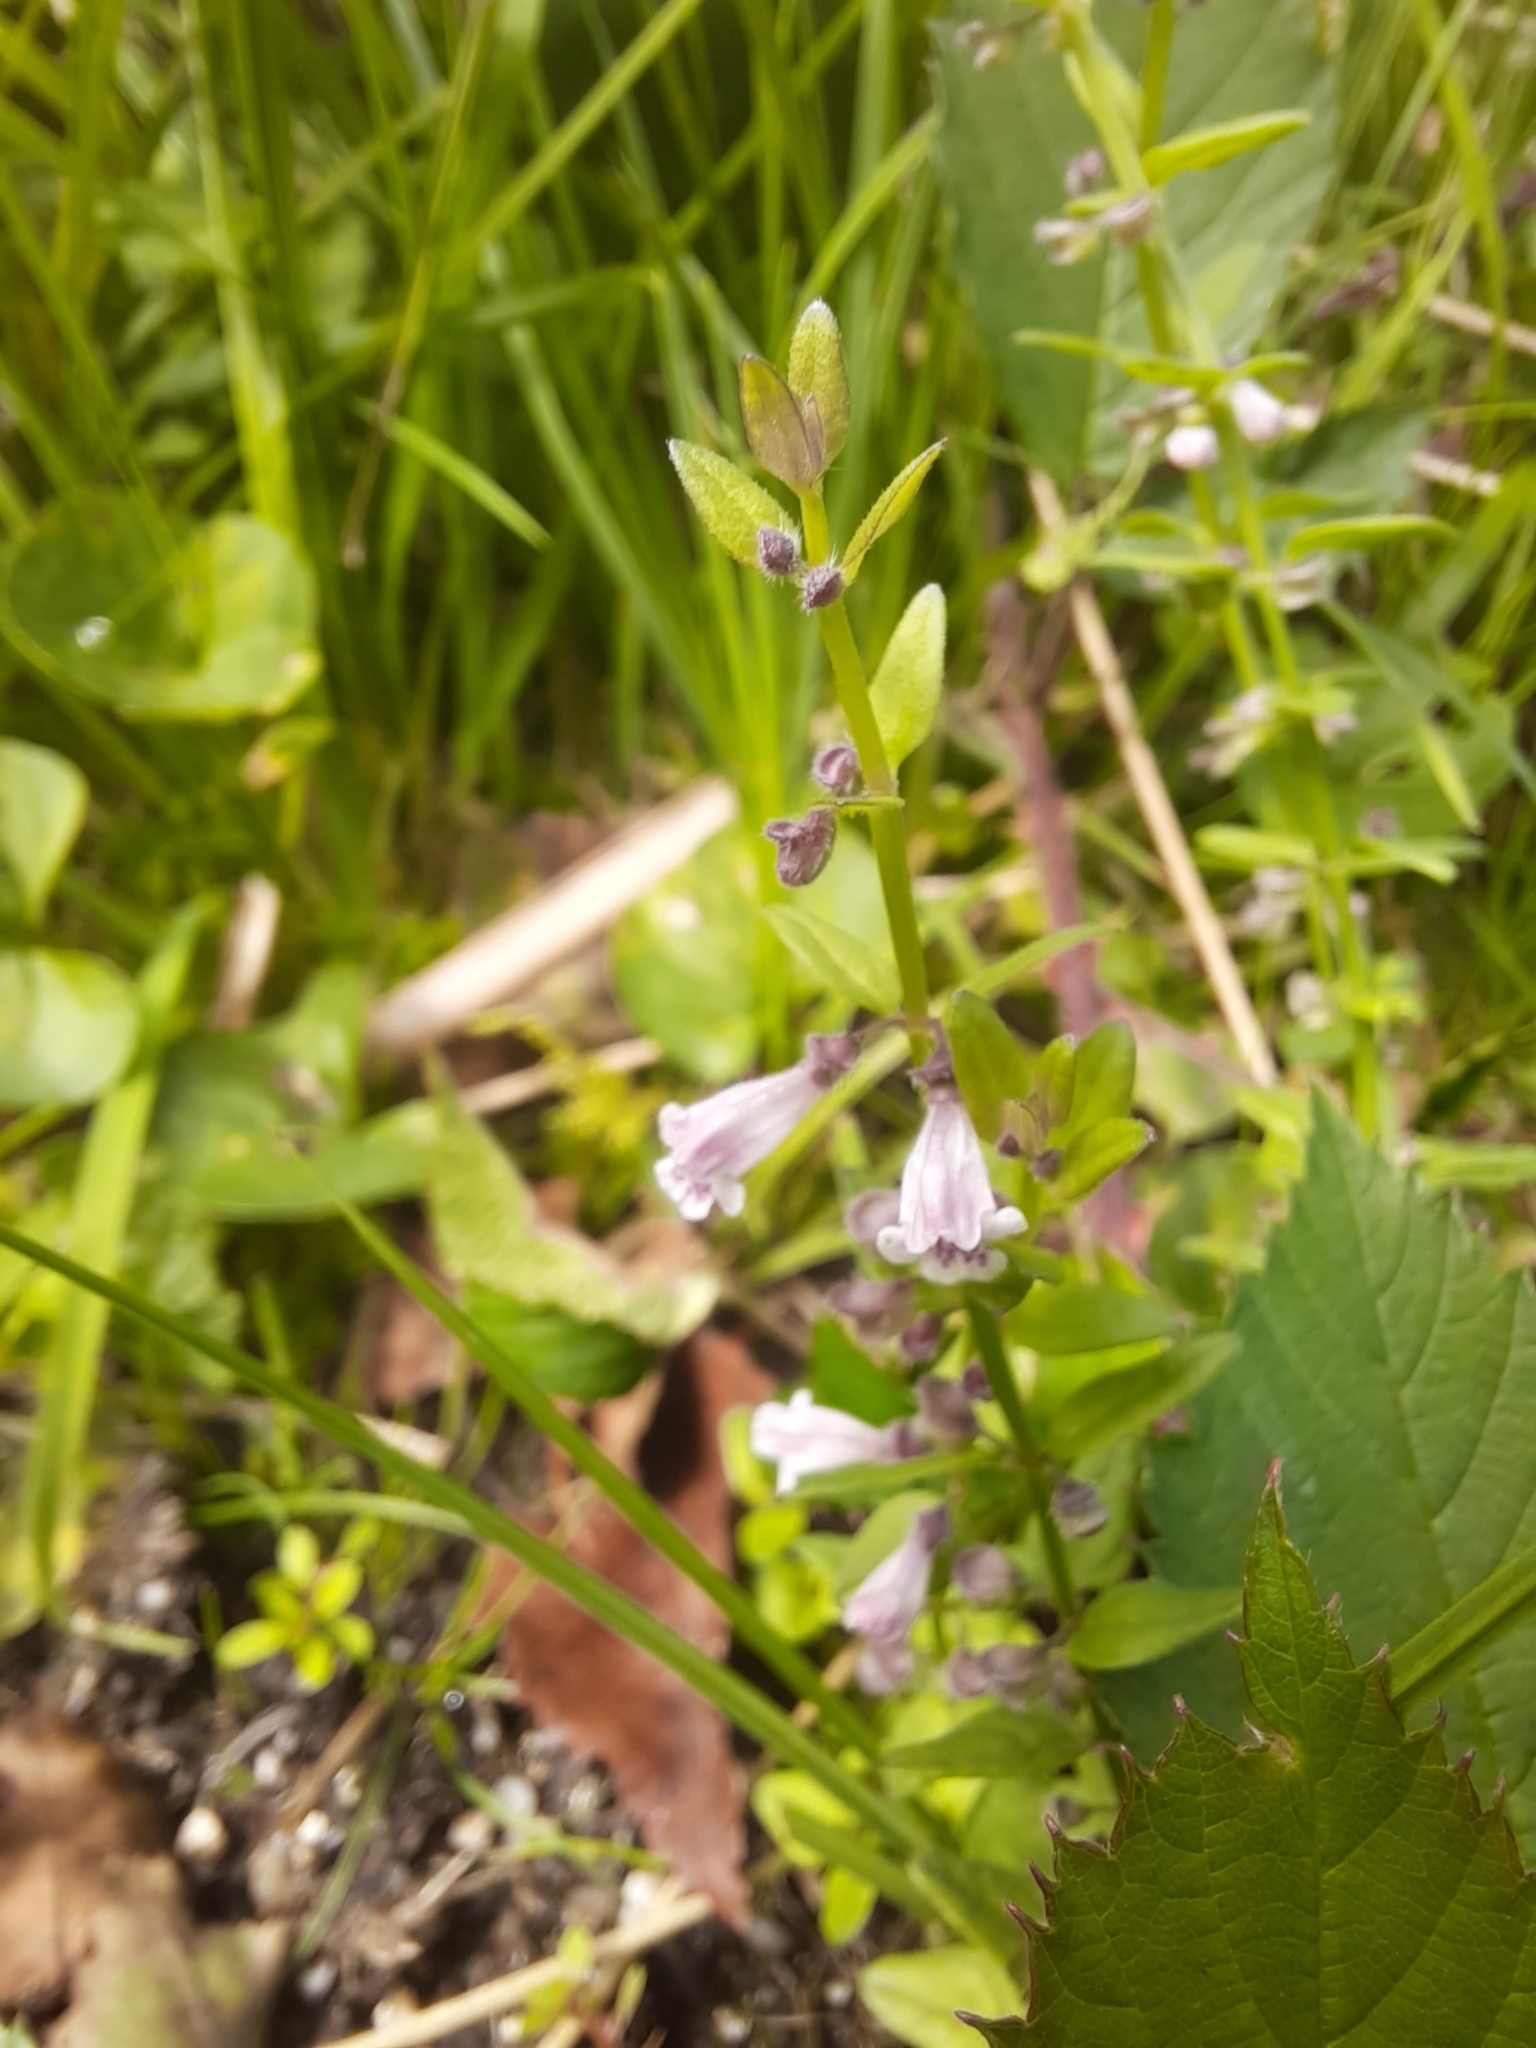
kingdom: Plantae
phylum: Tracheophyta
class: Magnoliopsida
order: Lamiales
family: Lamiaceae
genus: Scutellaria
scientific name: Scutellaria minor
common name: Lesser skullcap
